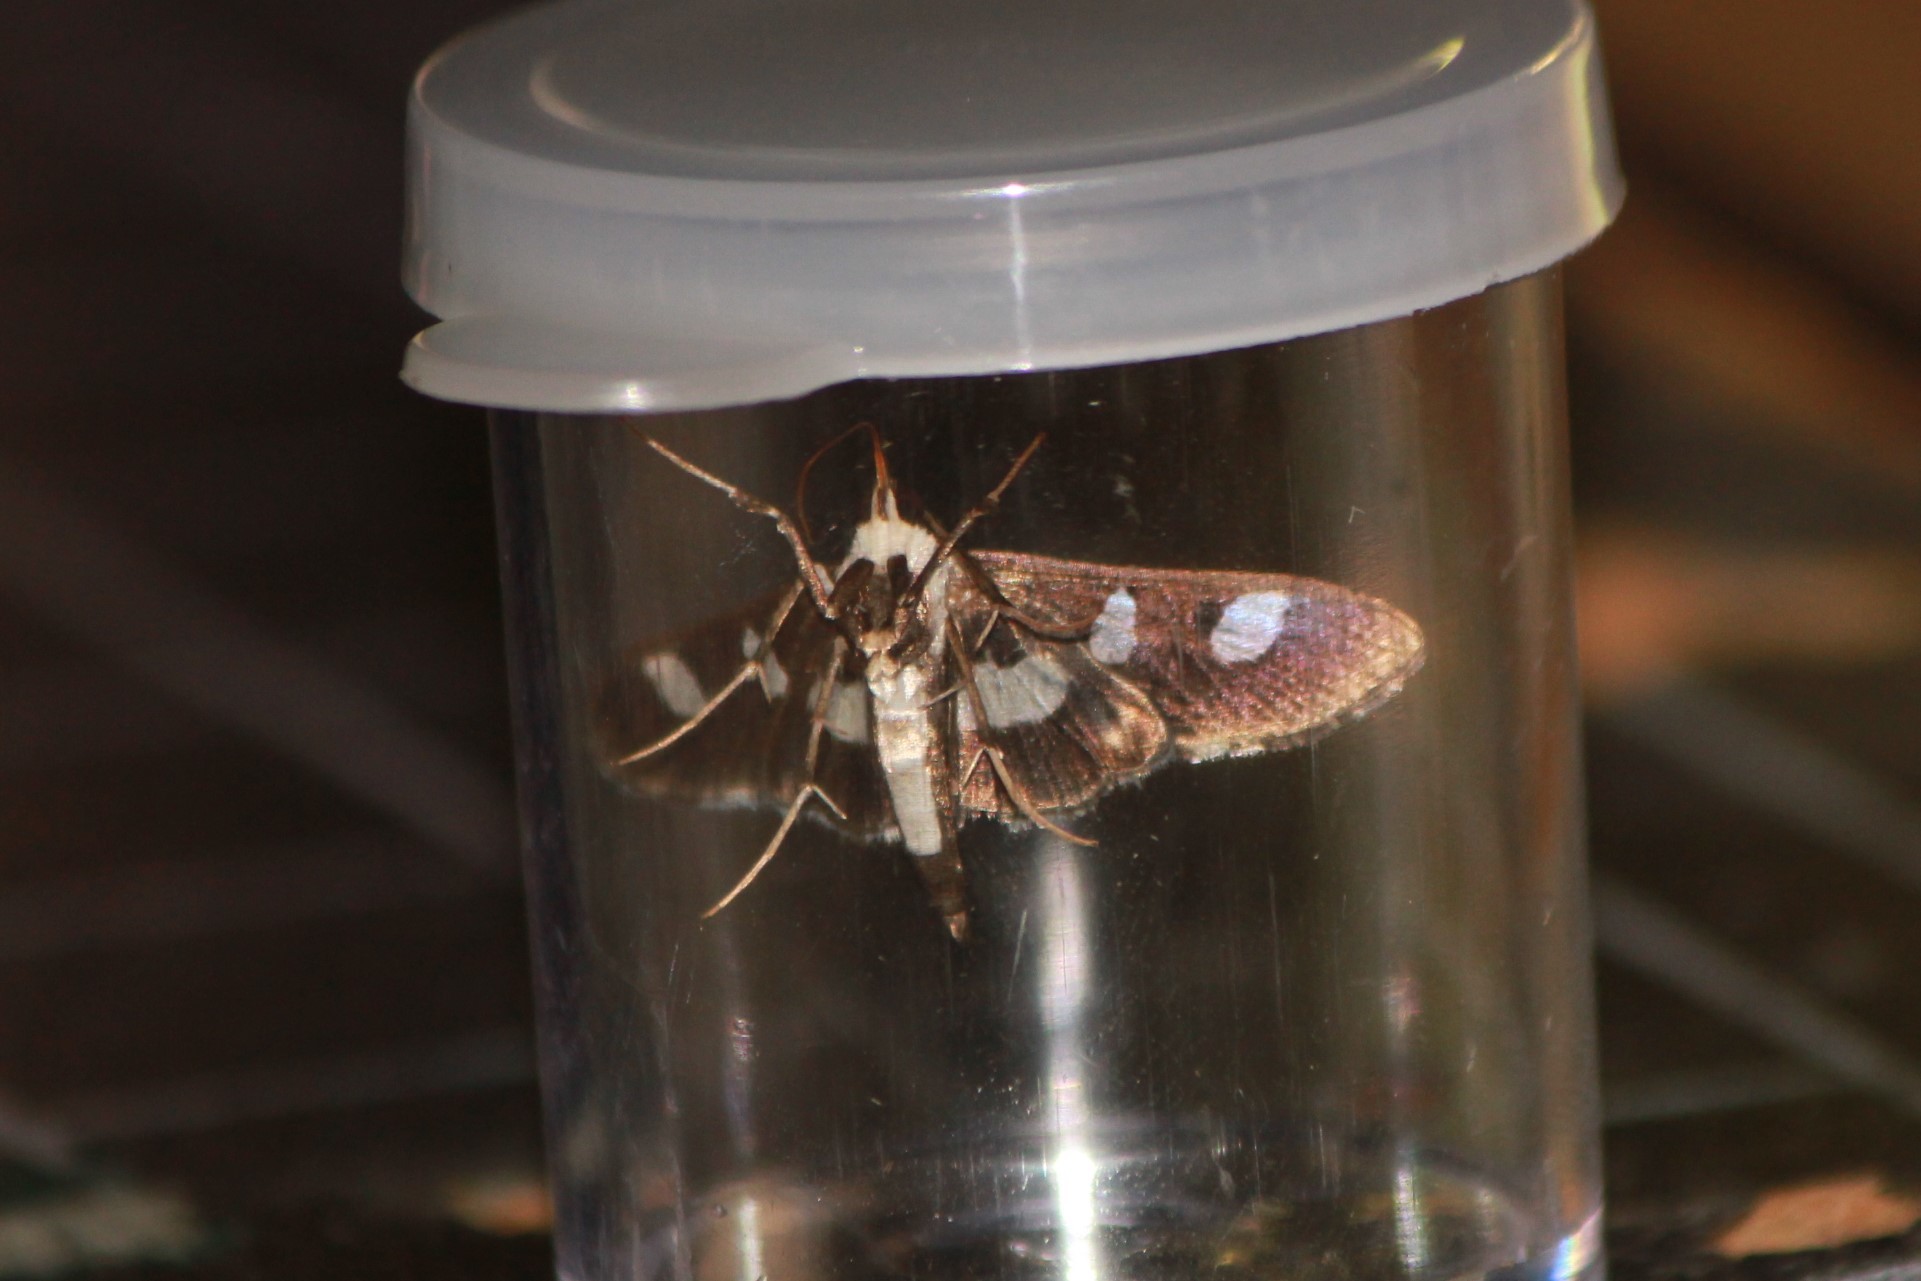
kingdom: Animalia
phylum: Arthropoda
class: Insecta
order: Lepidoptera
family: Crambidae
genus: Desmia
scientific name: Desmia funeralis
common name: Grape leaf folder moth
